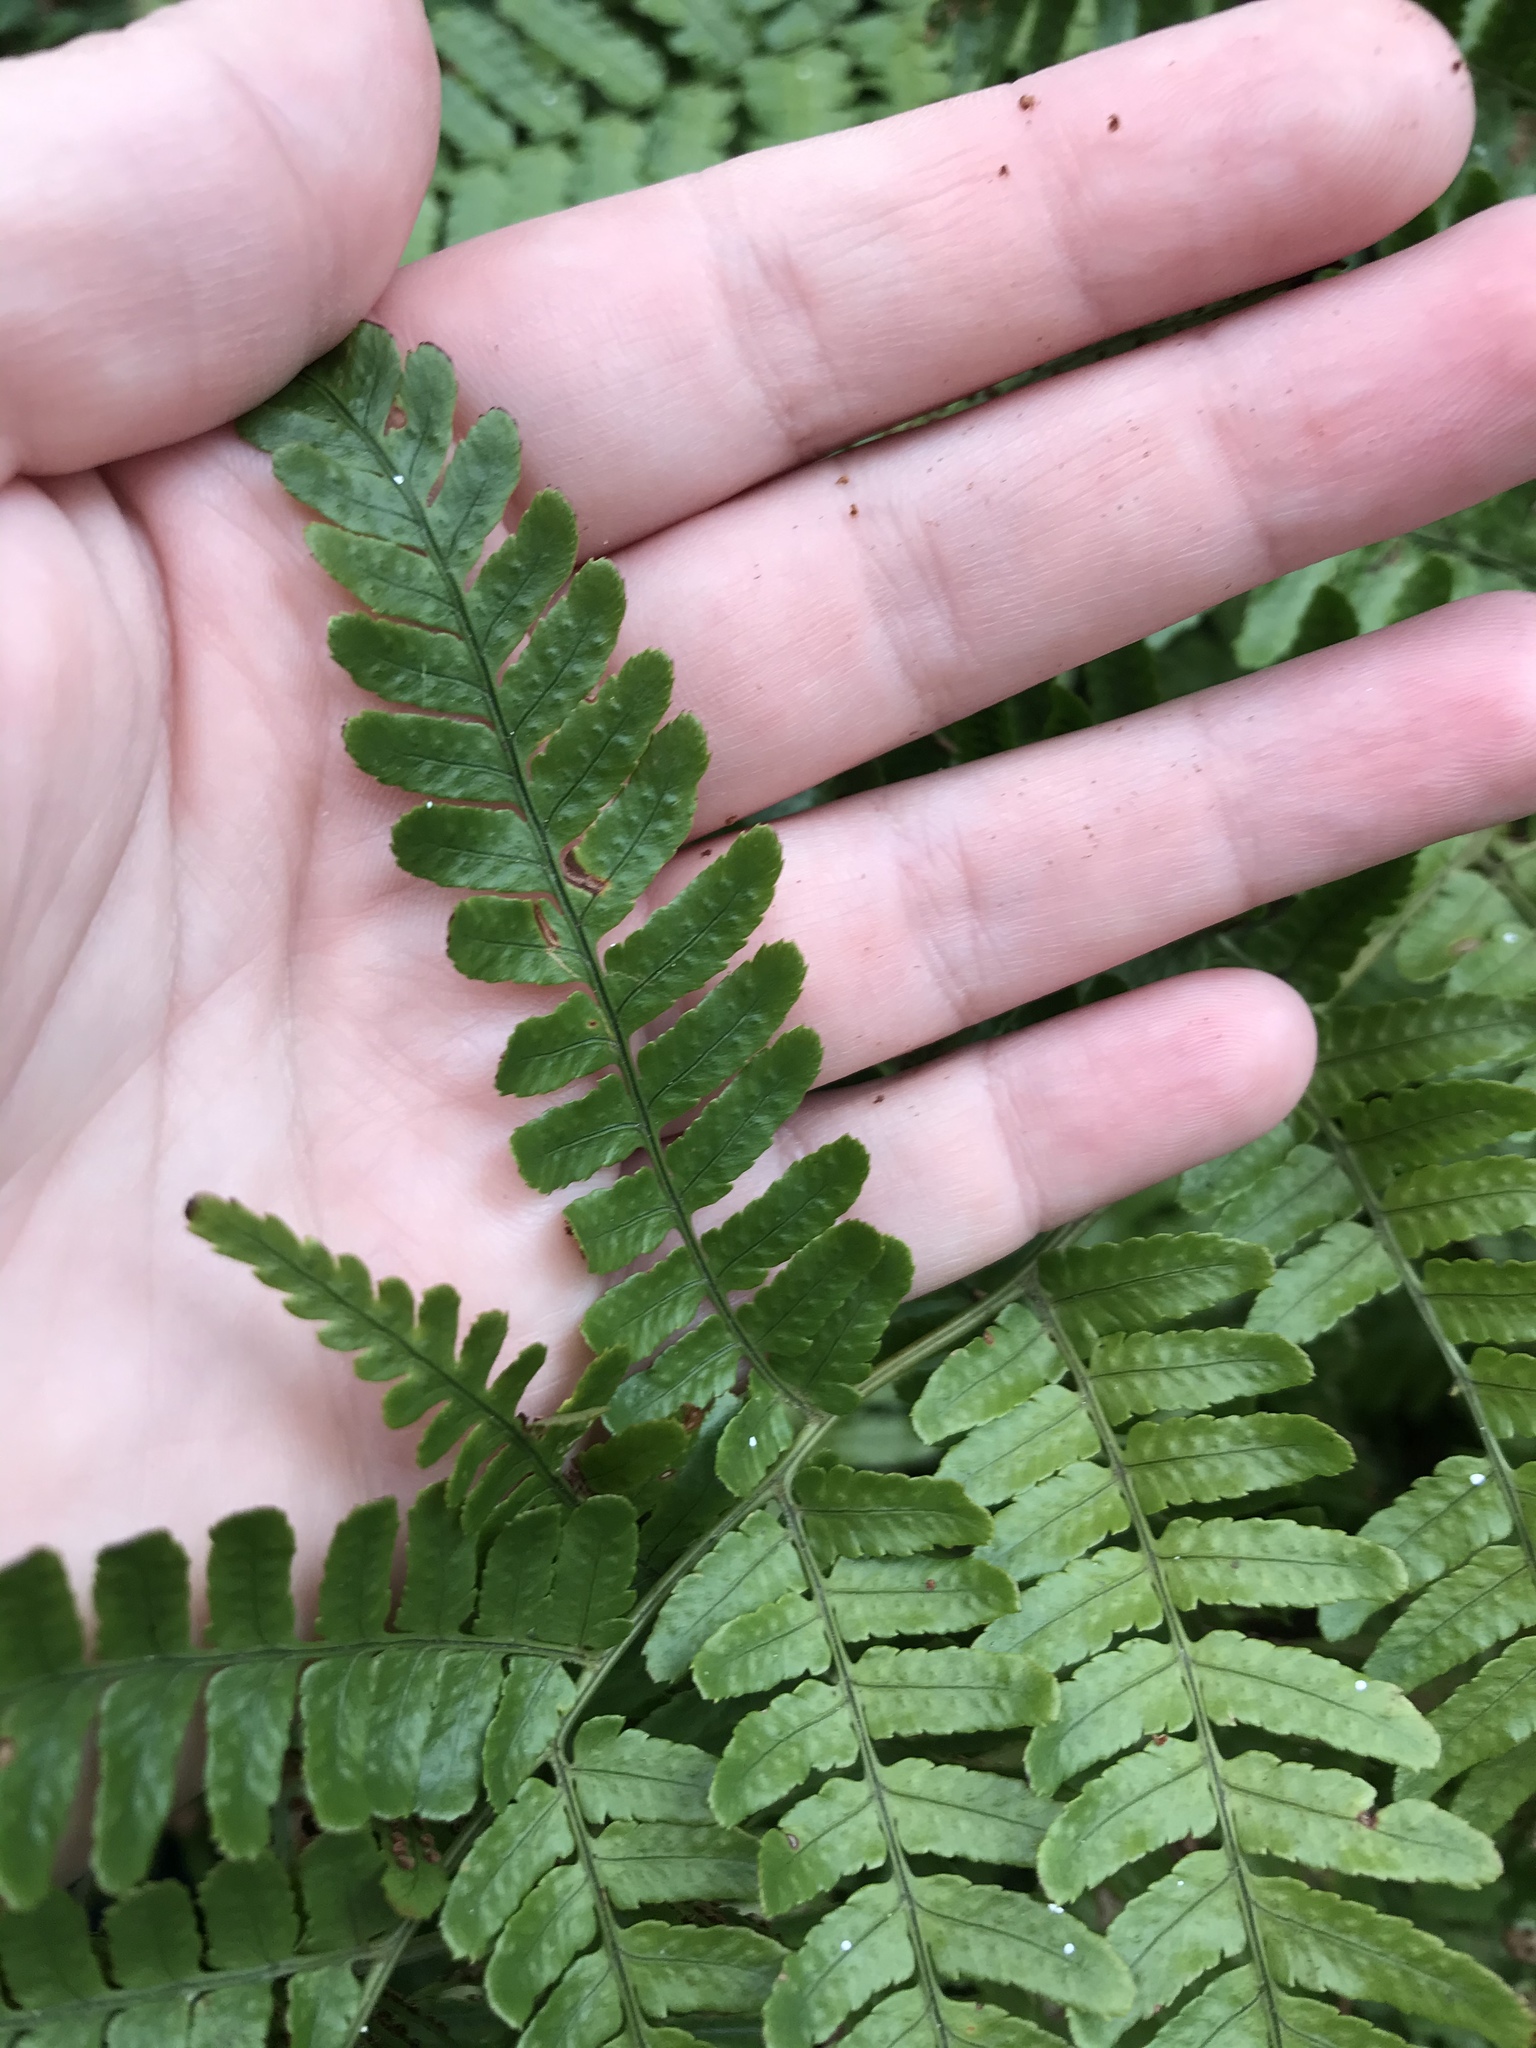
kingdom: Plantae
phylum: Tracheophyta
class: Polypodiopsida
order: Polypodiales
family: Dryopteridaceae
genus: Dryopteris
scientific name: Dryopteris erythrosora
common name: Autumn fern
